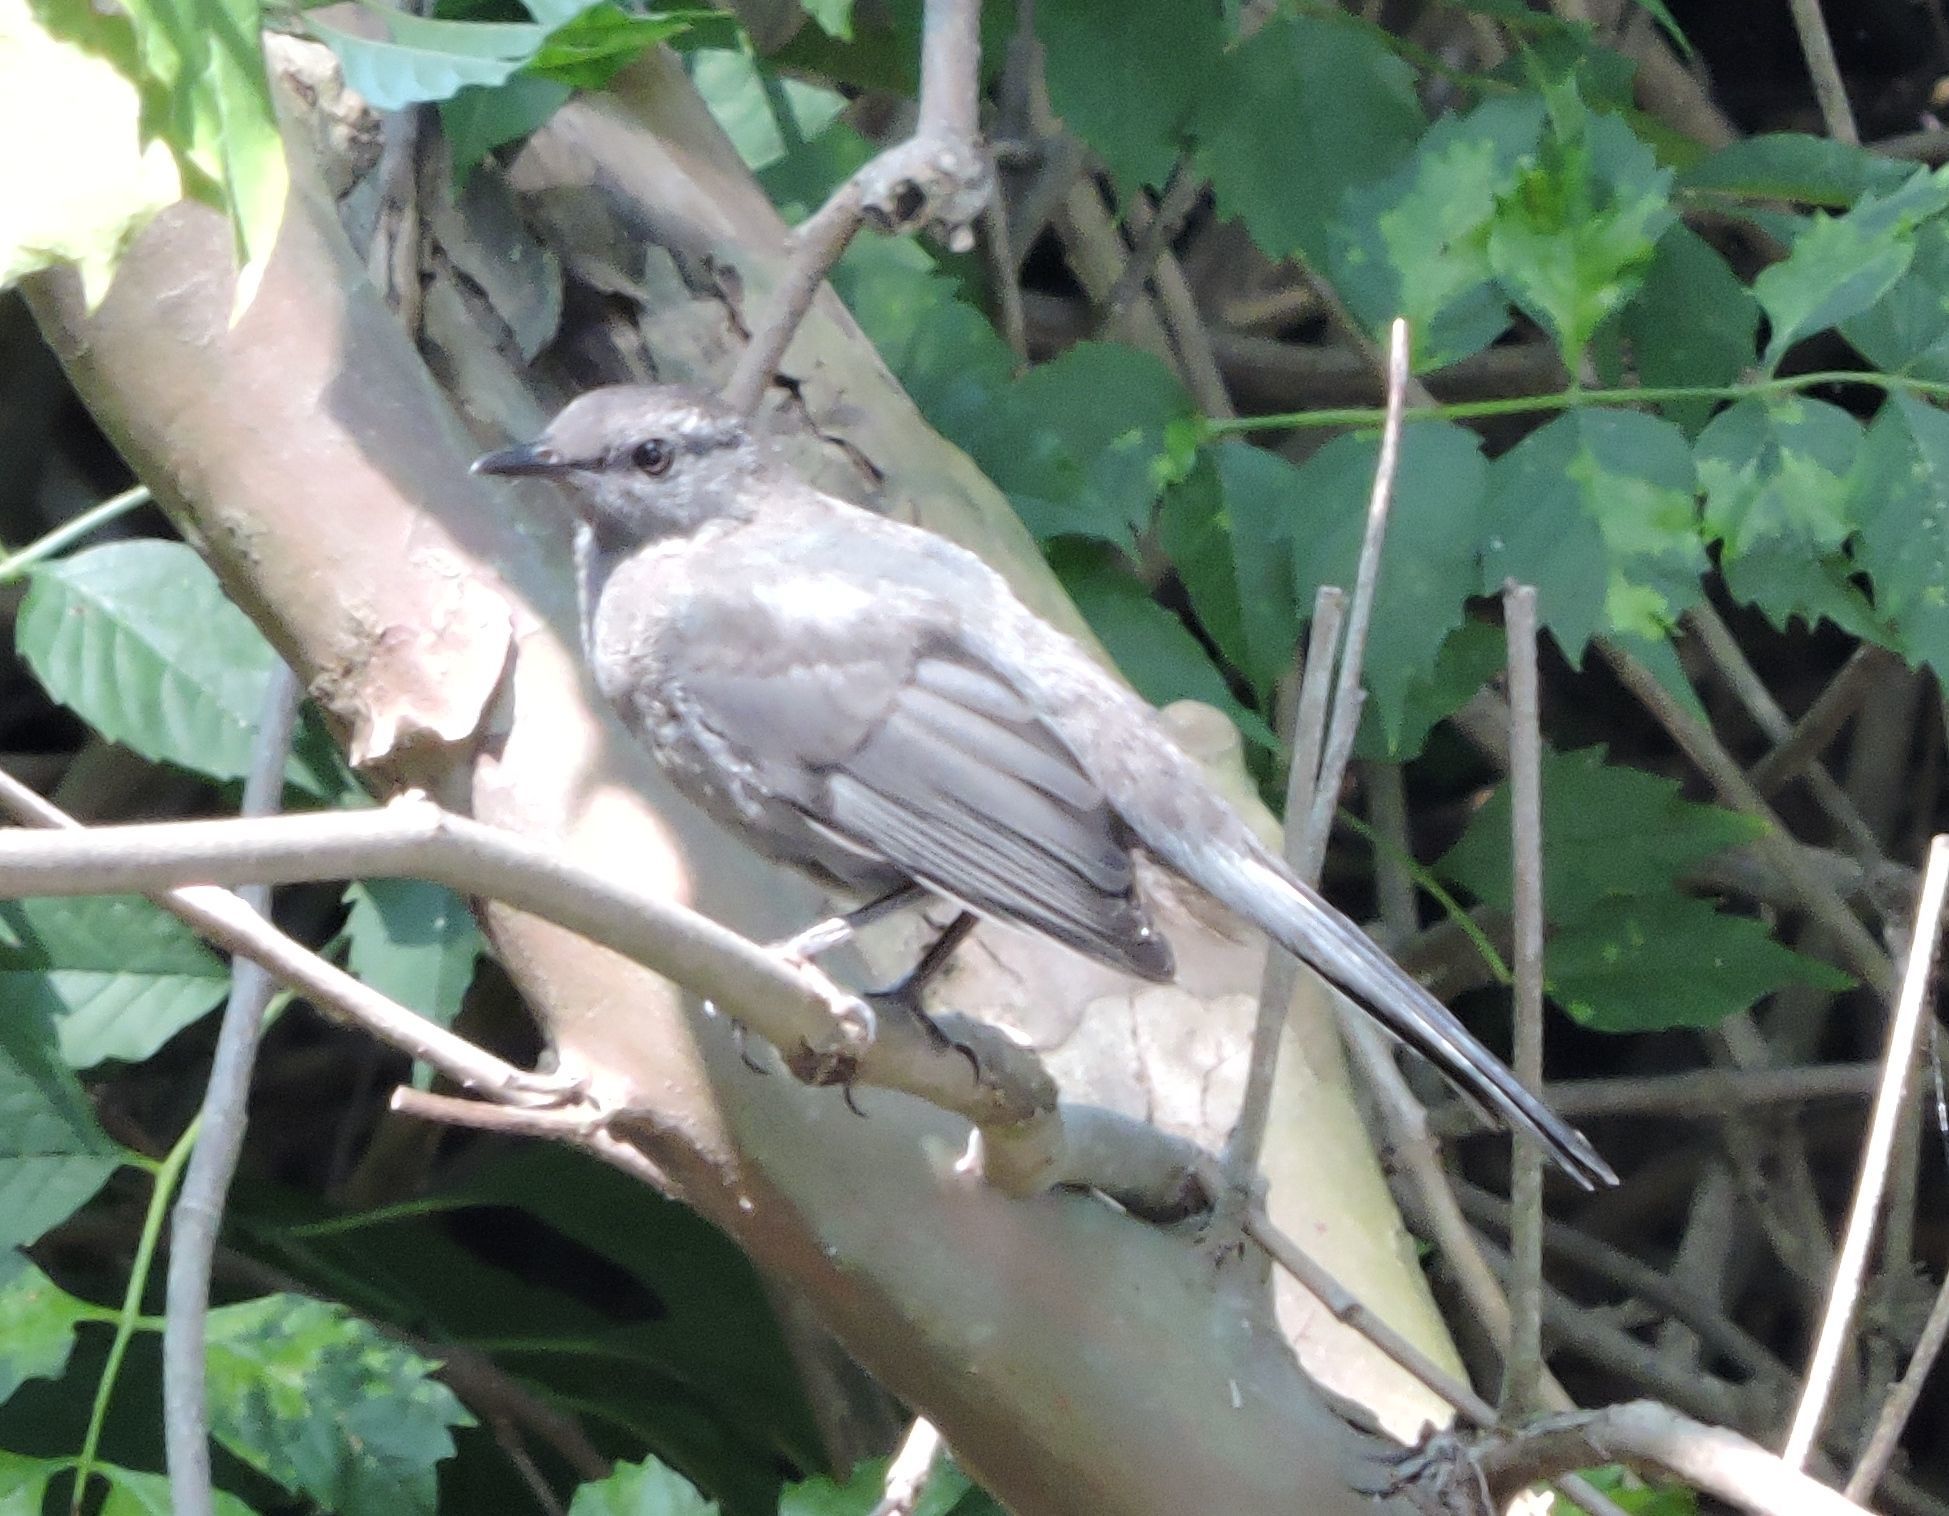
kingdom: Animalia
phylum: Chordata
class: Aves
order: Passeriformes
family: Mimidae
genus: Dumetella
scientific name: Dumetella carolinensis
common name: Gray catbird
